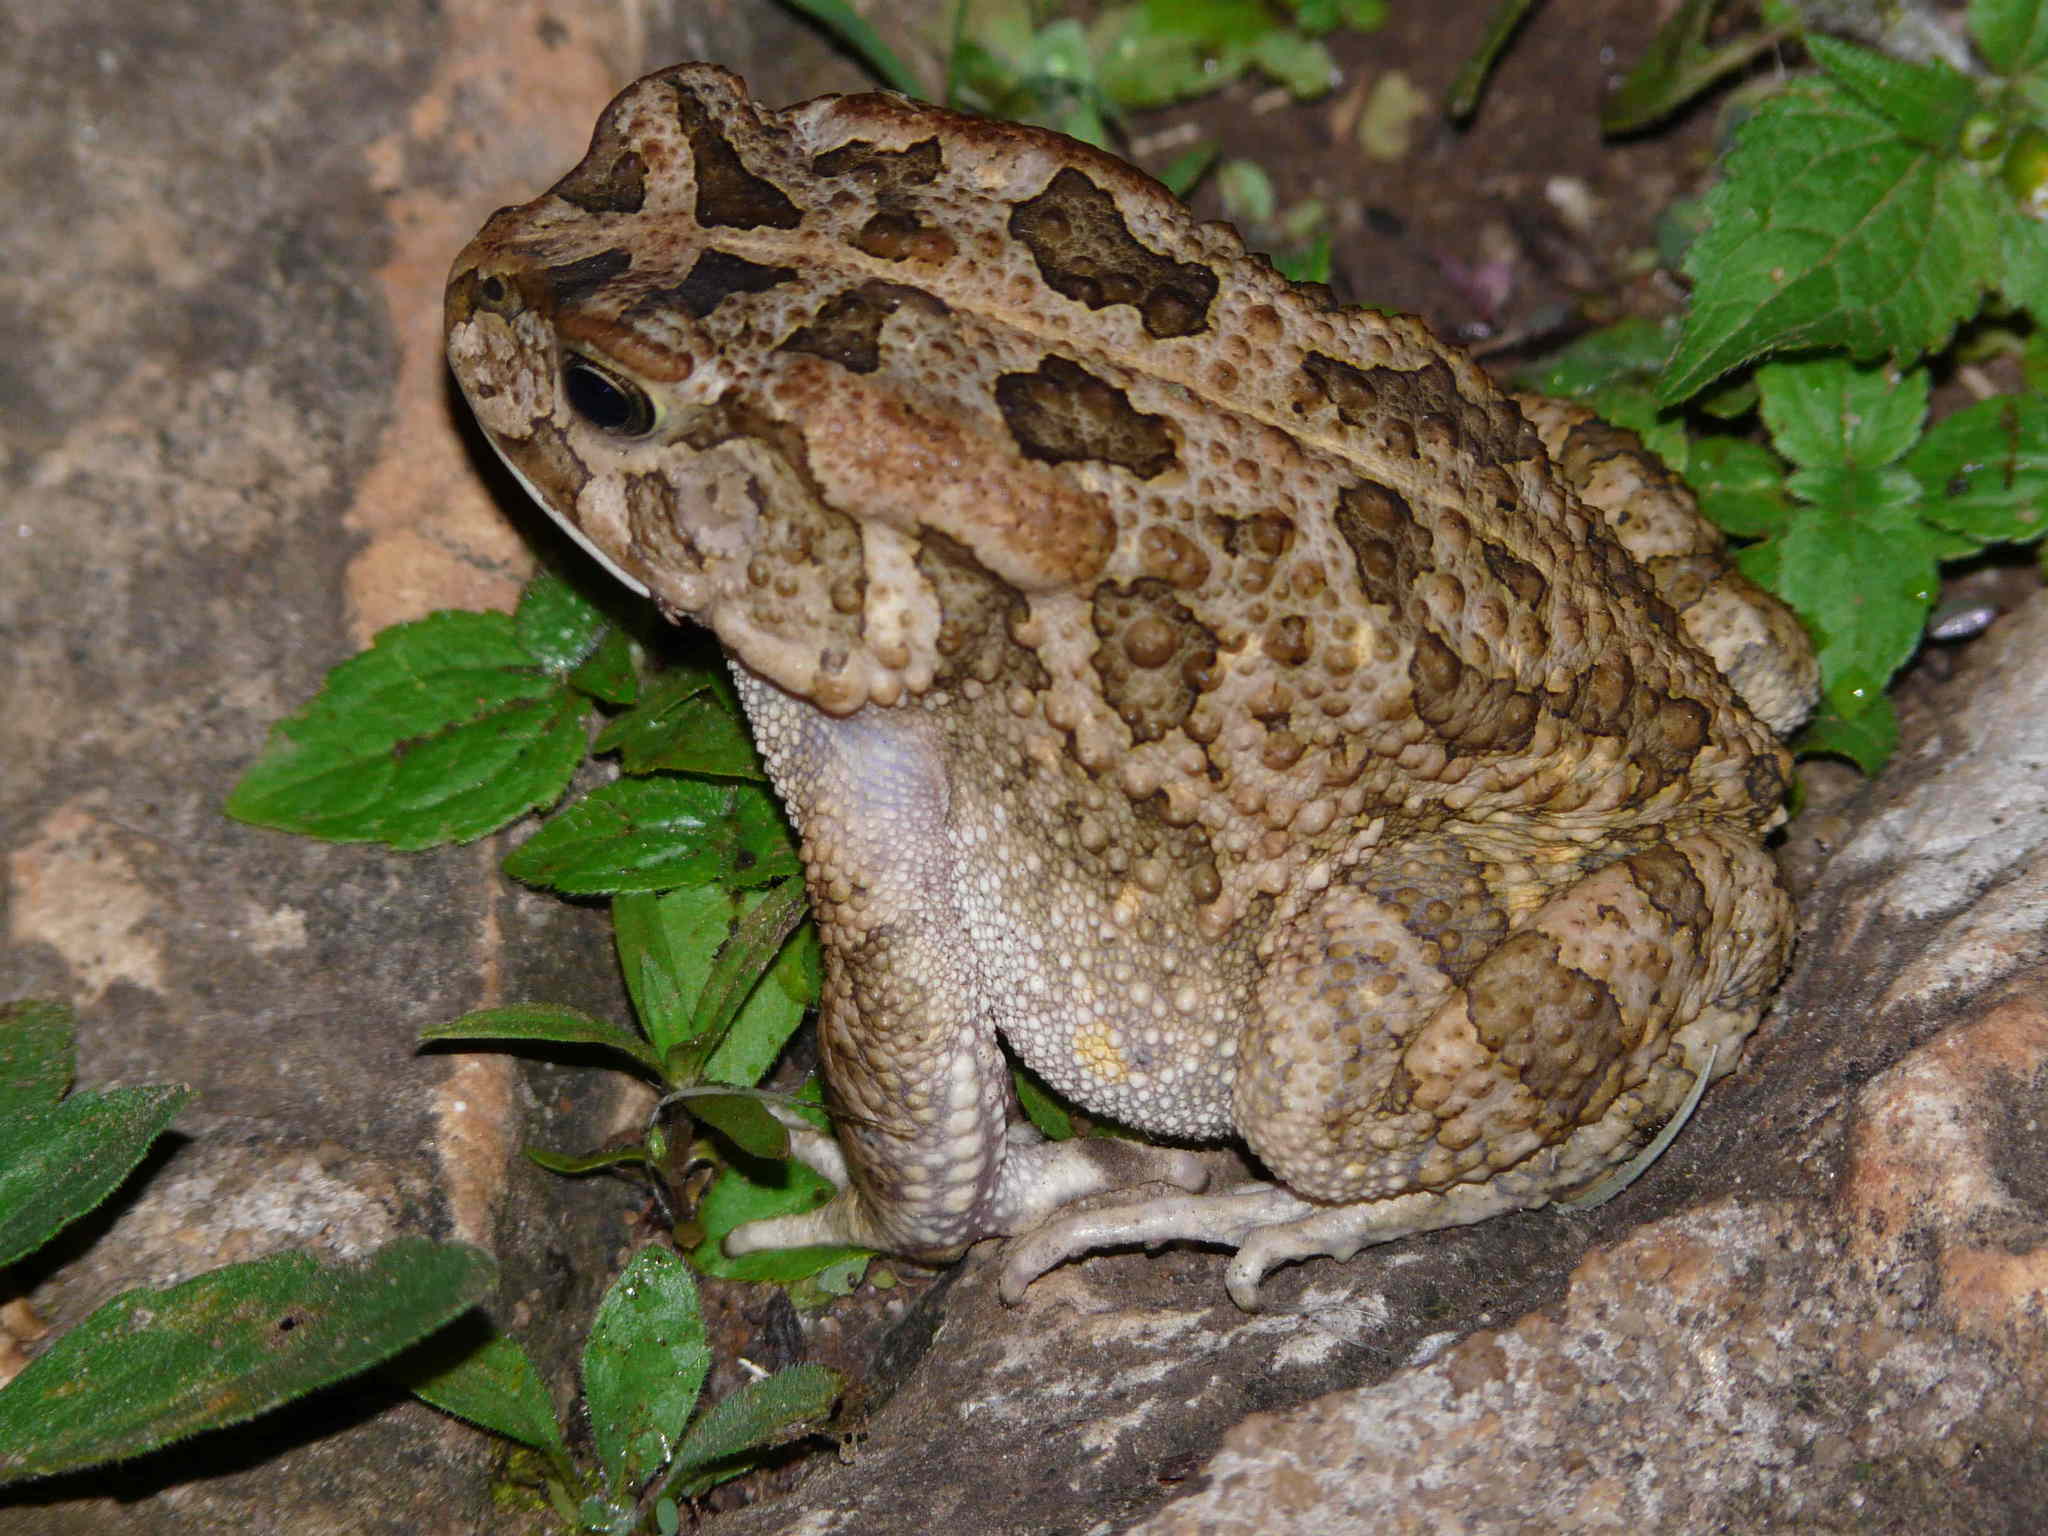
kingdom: Animalia
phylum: Chordata
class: Amphibia
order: Anura
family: Bufonidae
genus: Sclerophrys
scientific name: Sclerophrys gutturalis
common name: African common toad
